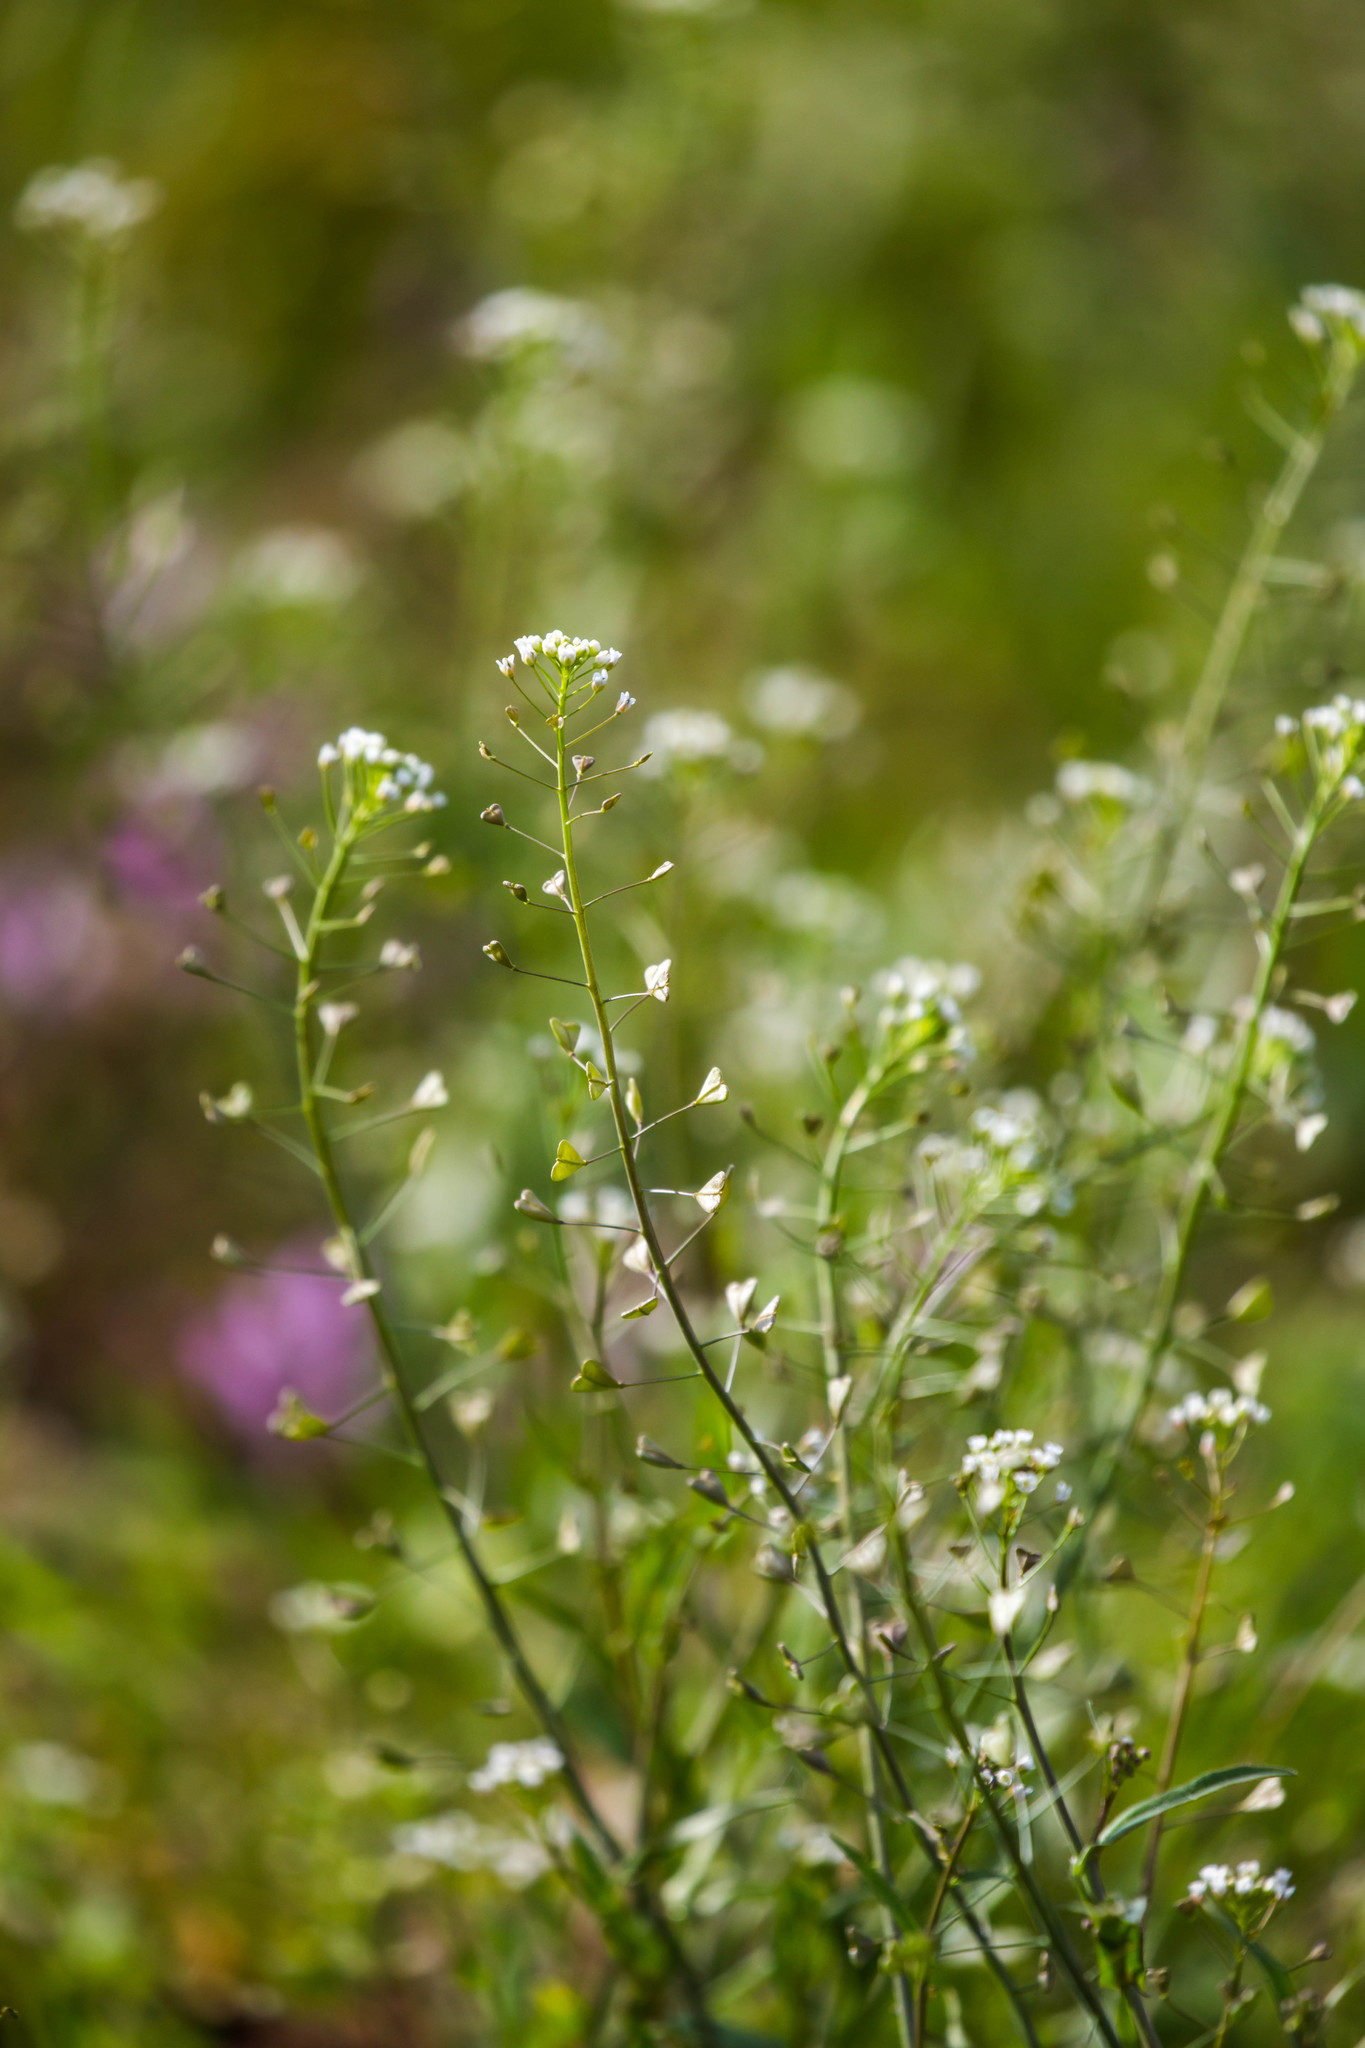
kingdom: Plantae
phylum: Tracheophyta
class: Magnoliopsida
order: Brassicales
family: Brassicaceae
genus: Capsella
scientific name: Capsella bursa-pastoris
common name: Shepherd's purse
